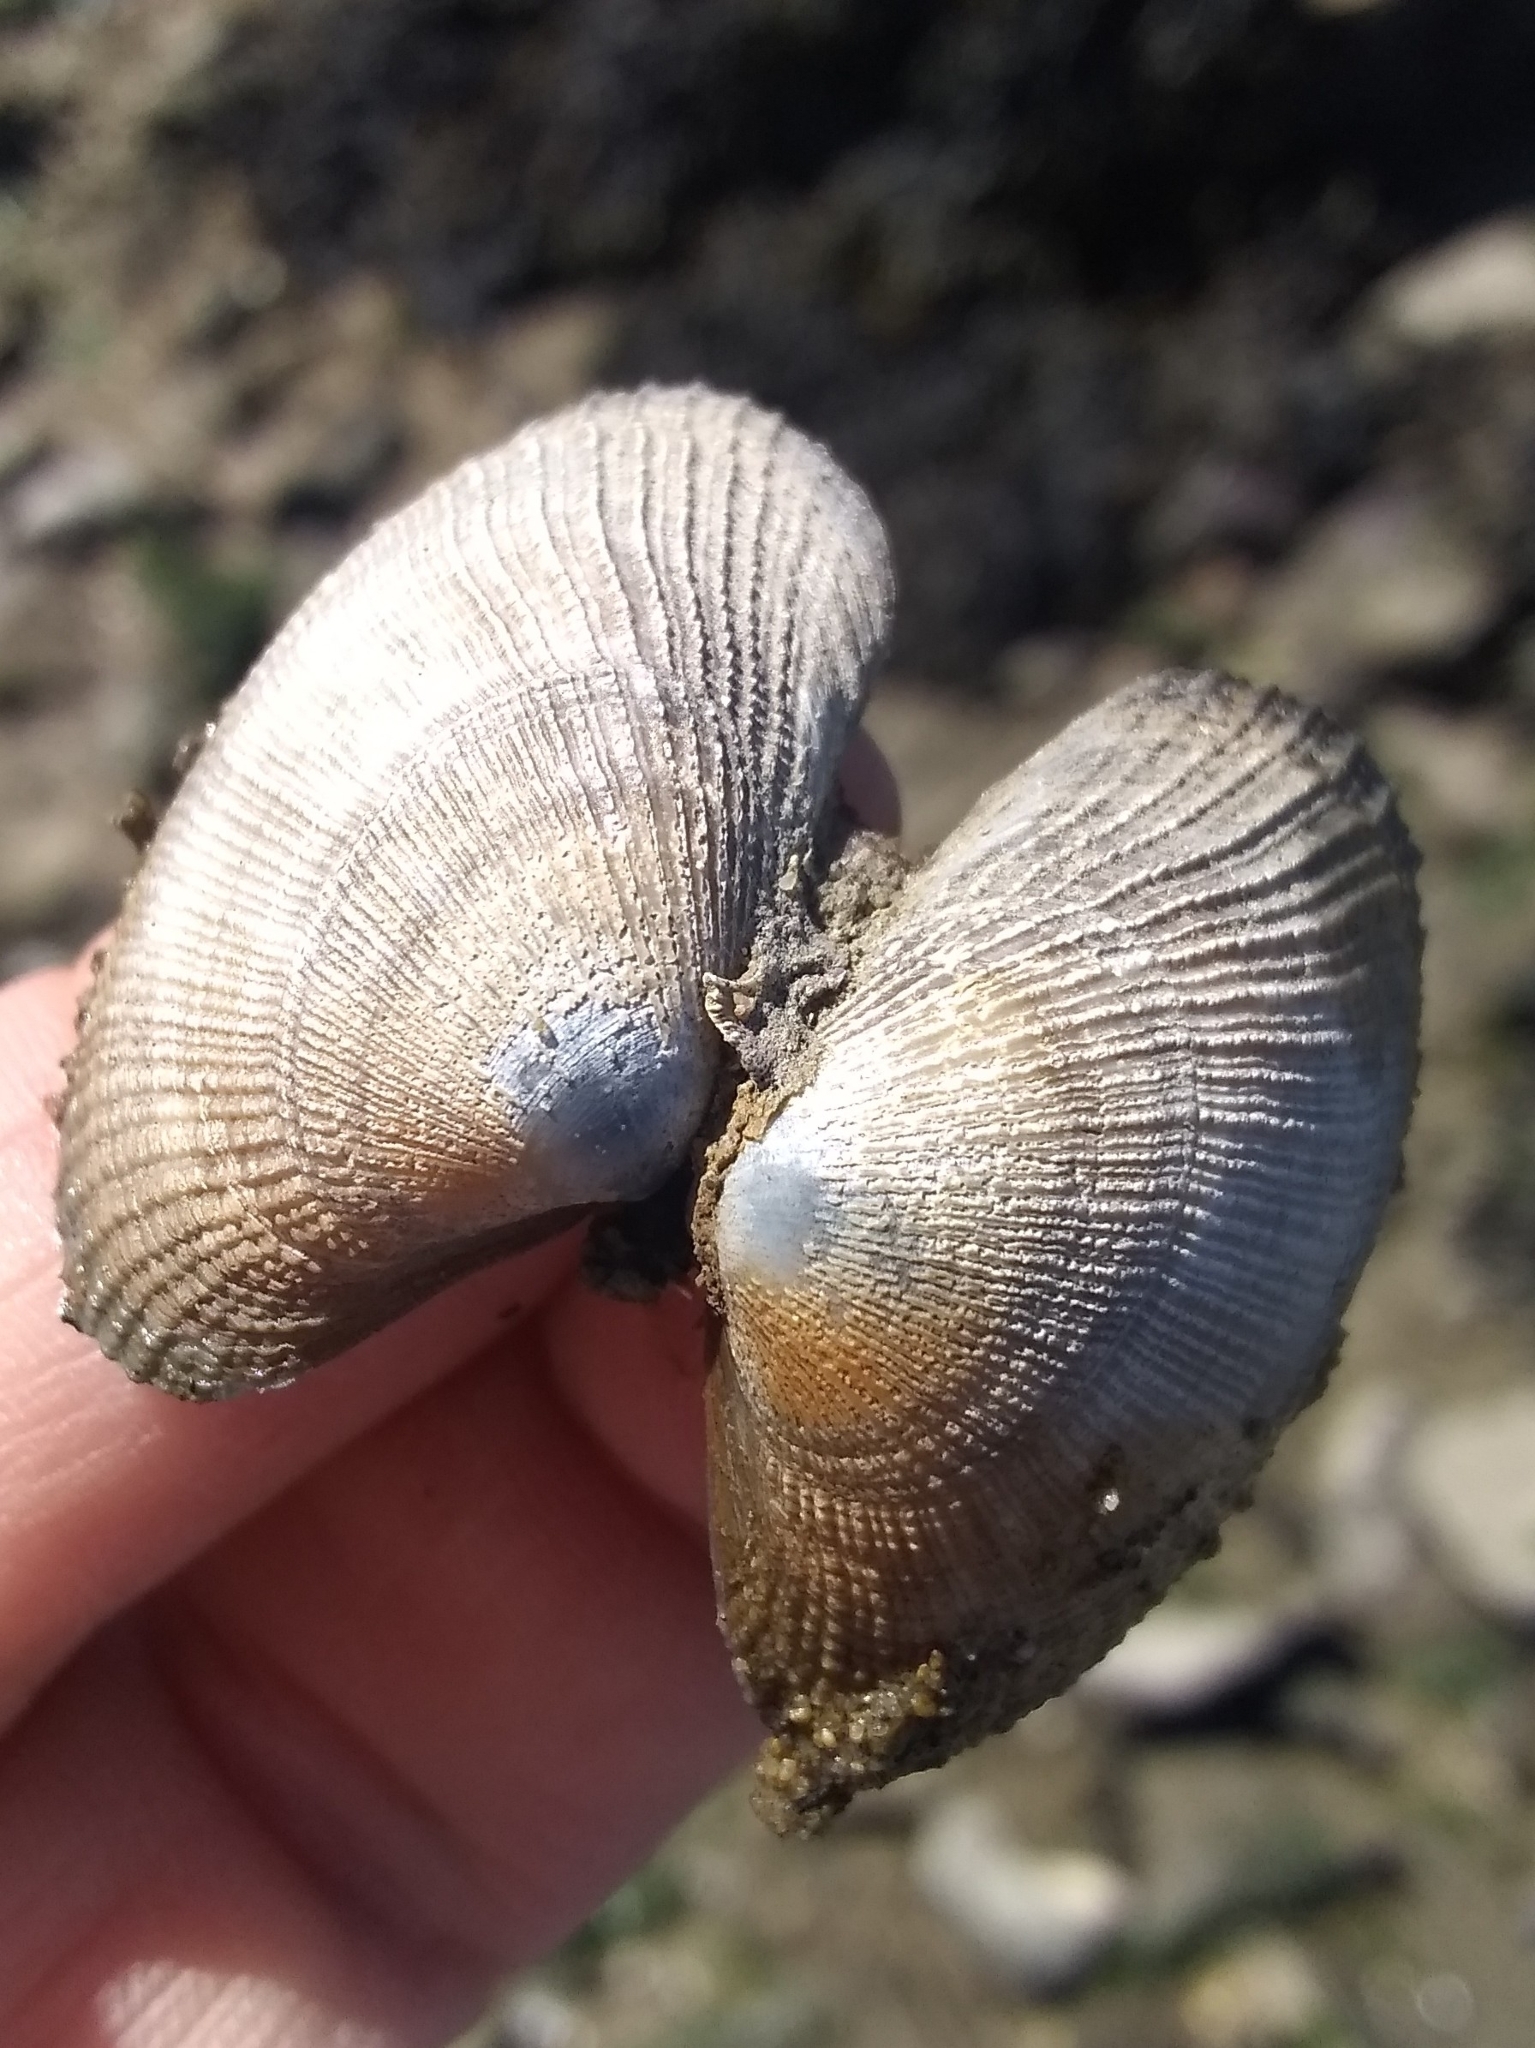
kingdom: Animalia
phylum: Mollusca
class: Bivalvia
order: Venerida
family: Veneridae
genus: Ruditapes
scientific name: Ruditapes philippinarum
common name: Manila clam
